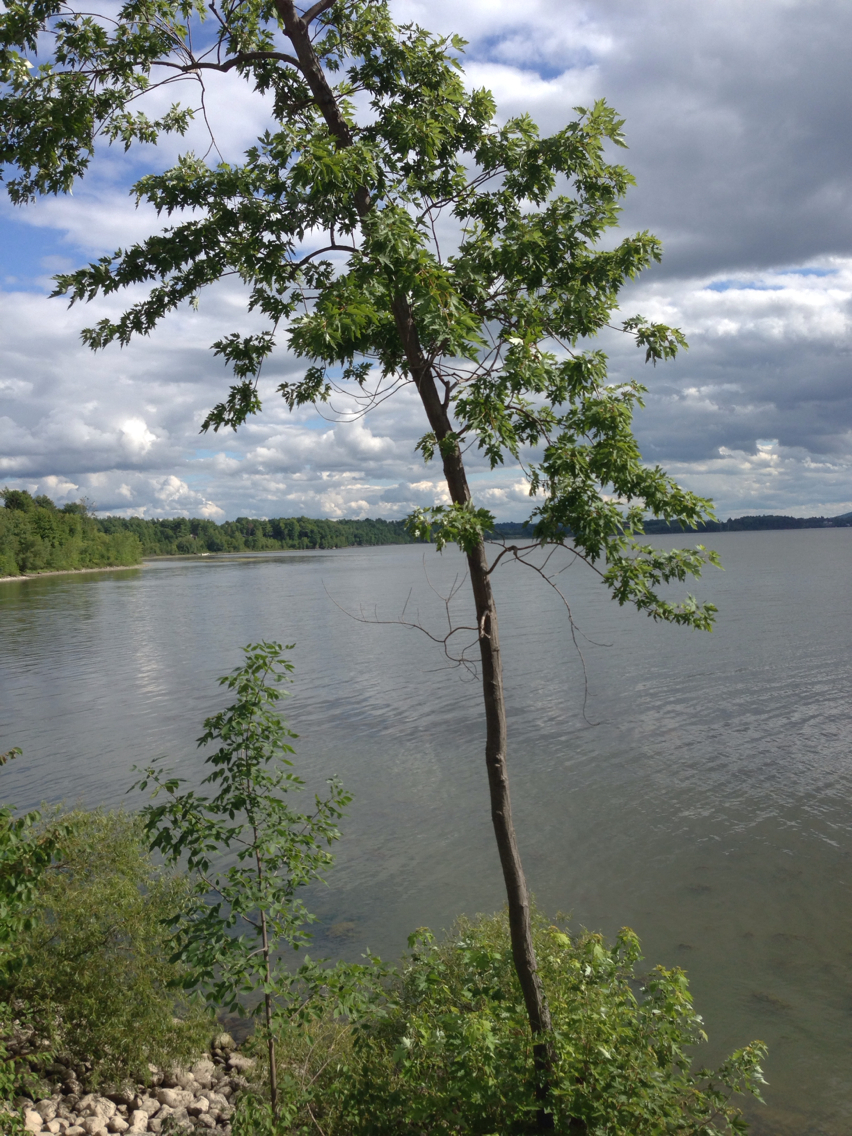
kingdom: Plantae
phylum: Tracheophyta
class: Magnoliopsida
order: Sapindales
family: Sapindaceae
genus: Acer
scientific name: Acer saccharinum
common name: Silver maple
